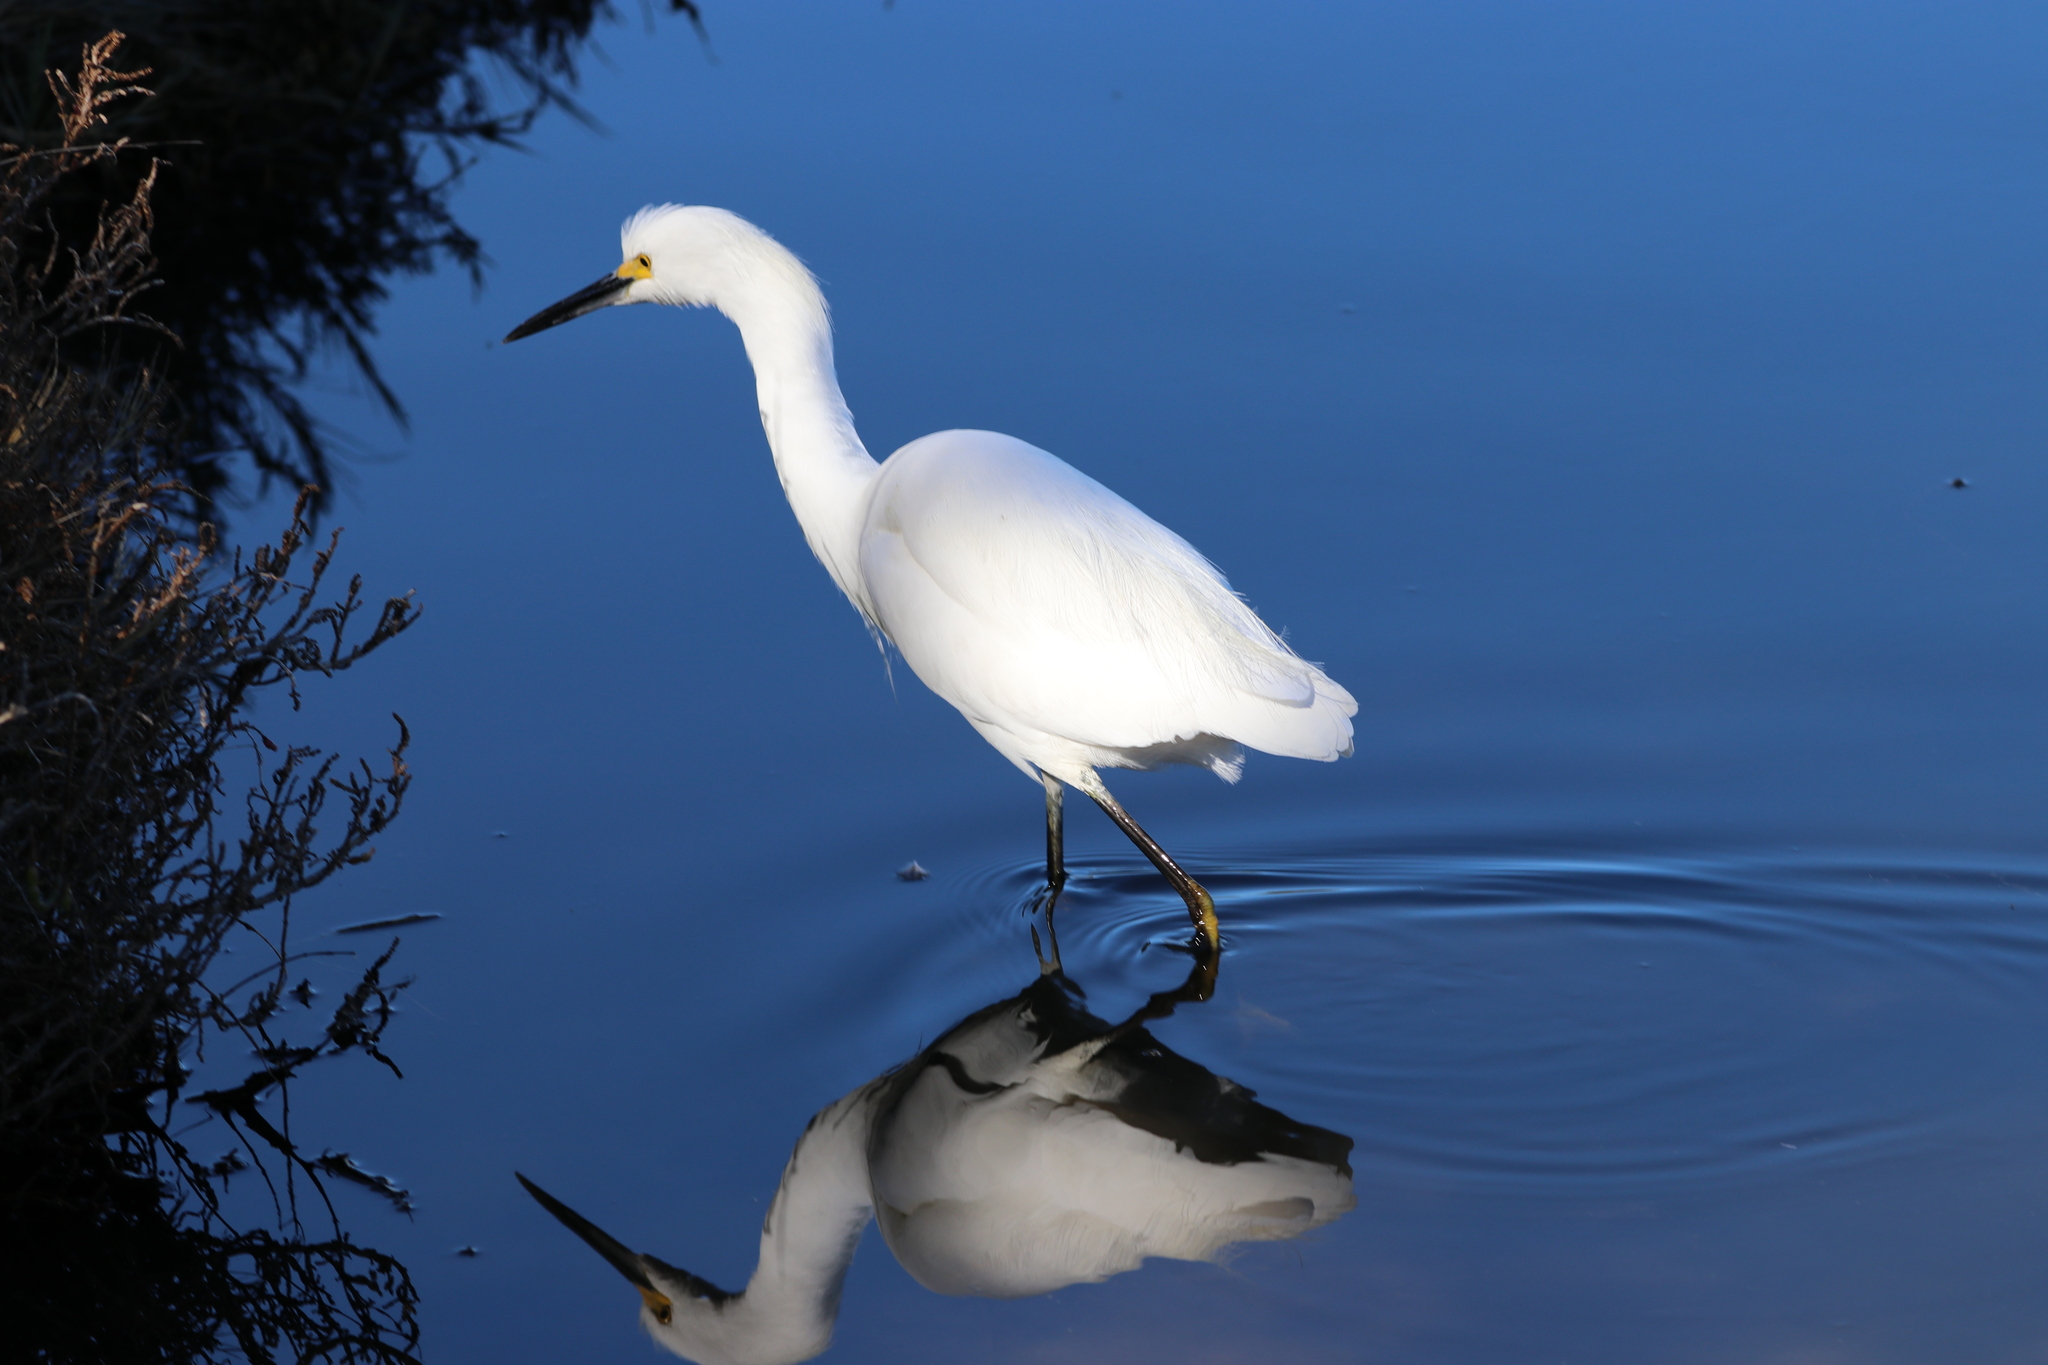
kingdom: Animalia
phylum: Chordata
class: Aves
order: Pelecaniformes
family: Ardeidae
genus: Egretta
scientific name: Egretta thula
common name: Snowy egret
